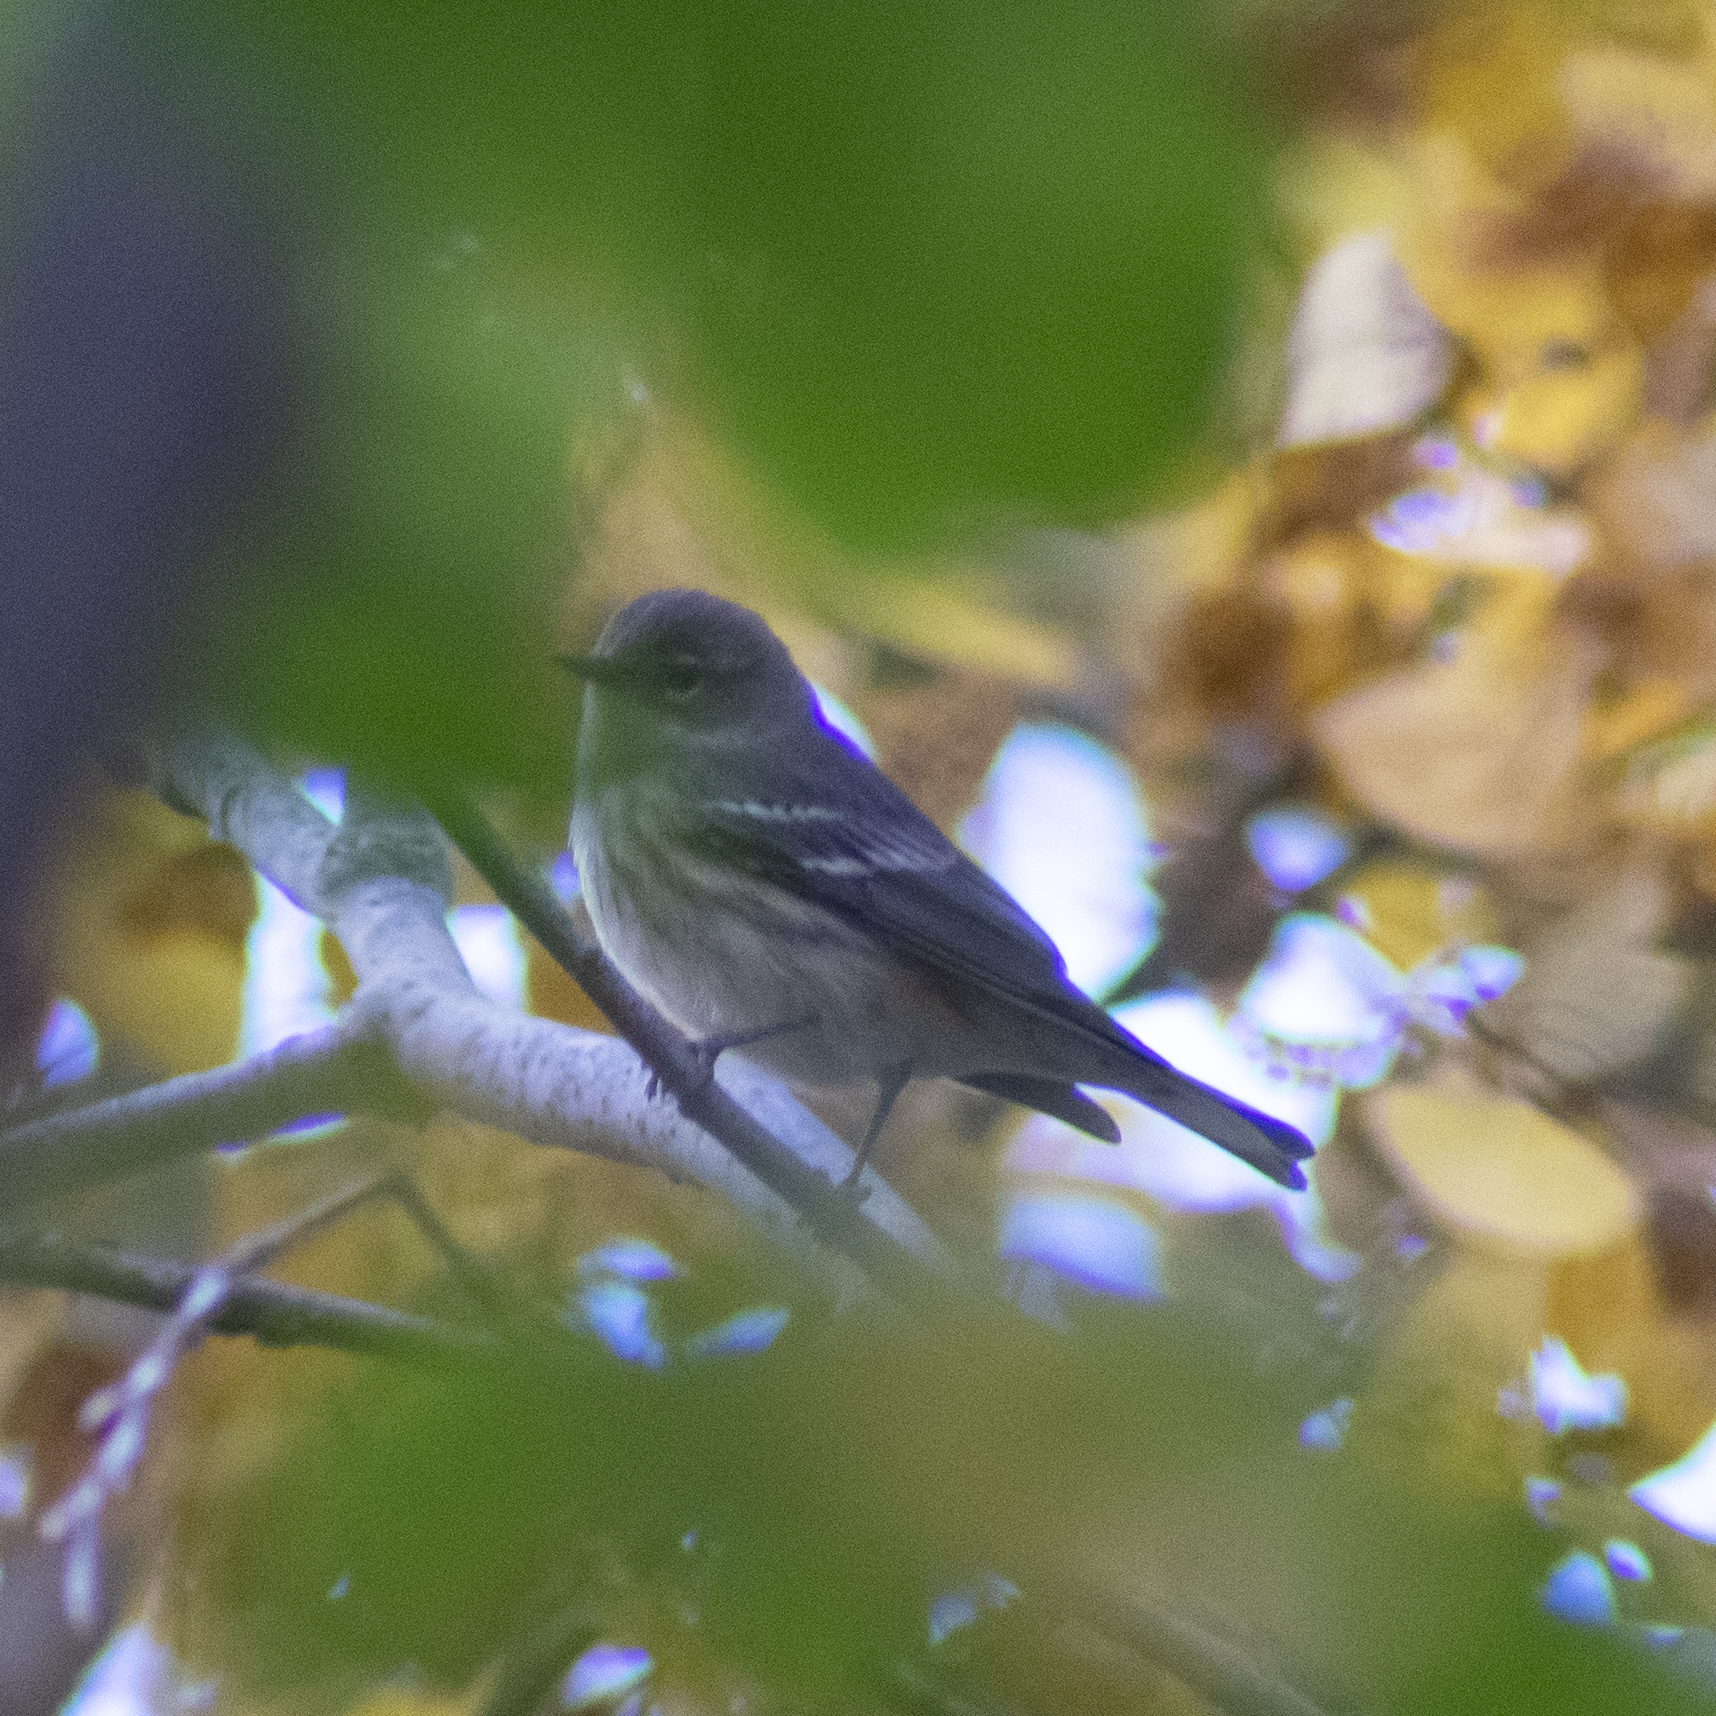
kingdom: Animalia
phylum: Chordata
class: Aves
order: Passeriformes
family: Parulidae
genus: Setophaga
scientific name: Setophaga coronata
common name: Myrtle warbler
